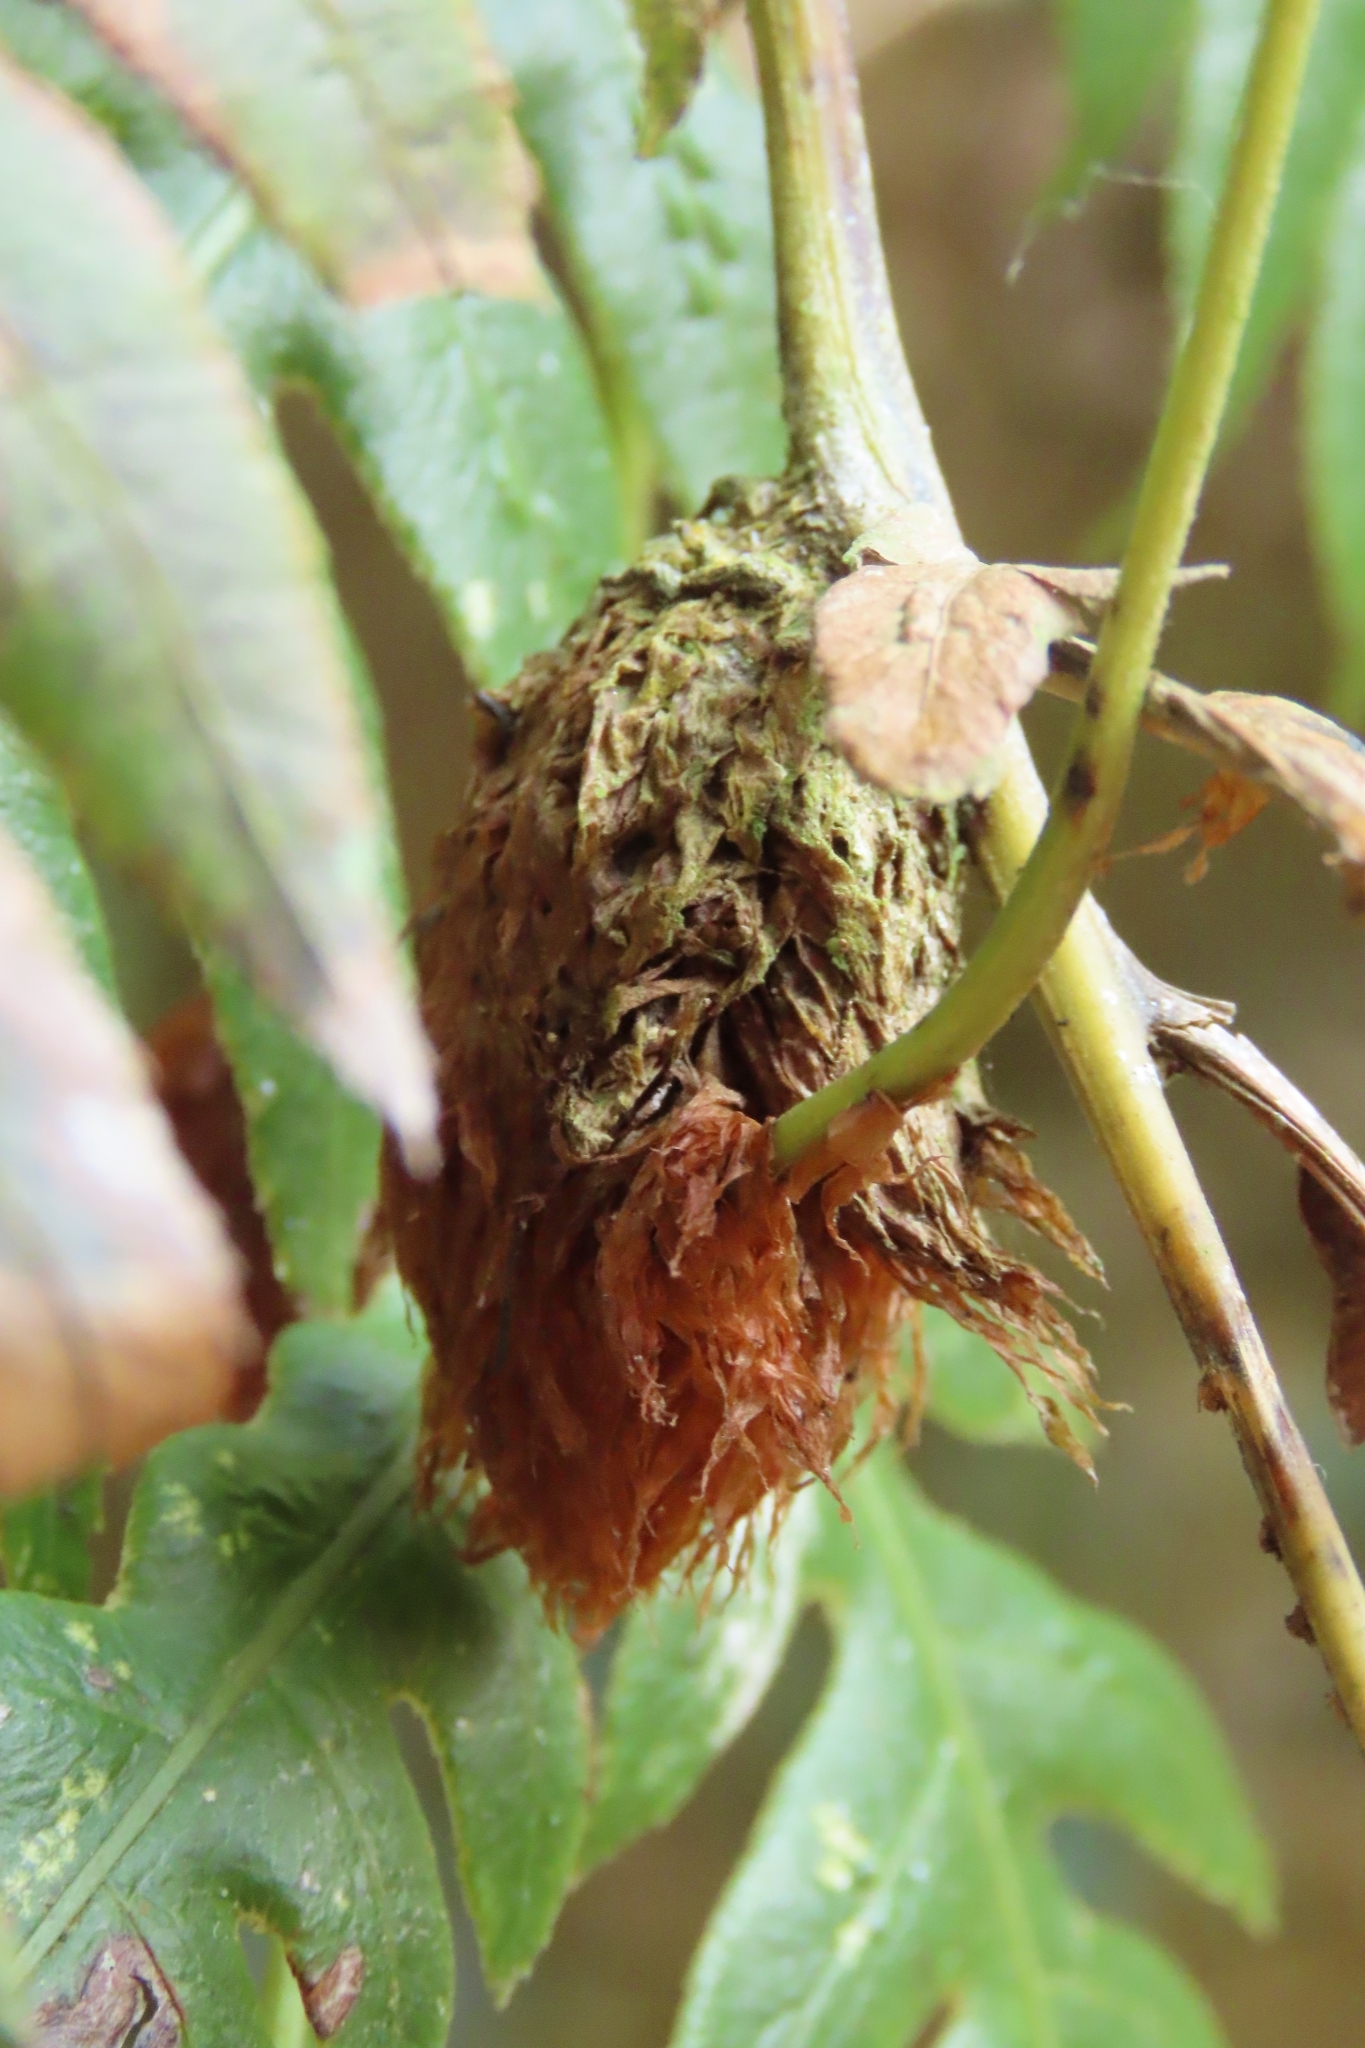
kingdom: Plantae
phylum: Tracheophyta
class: Polypodiopsida
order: Polypodiales
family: Blechnaceae
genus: Woodwardia
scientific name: Woodwardia unigemmata
